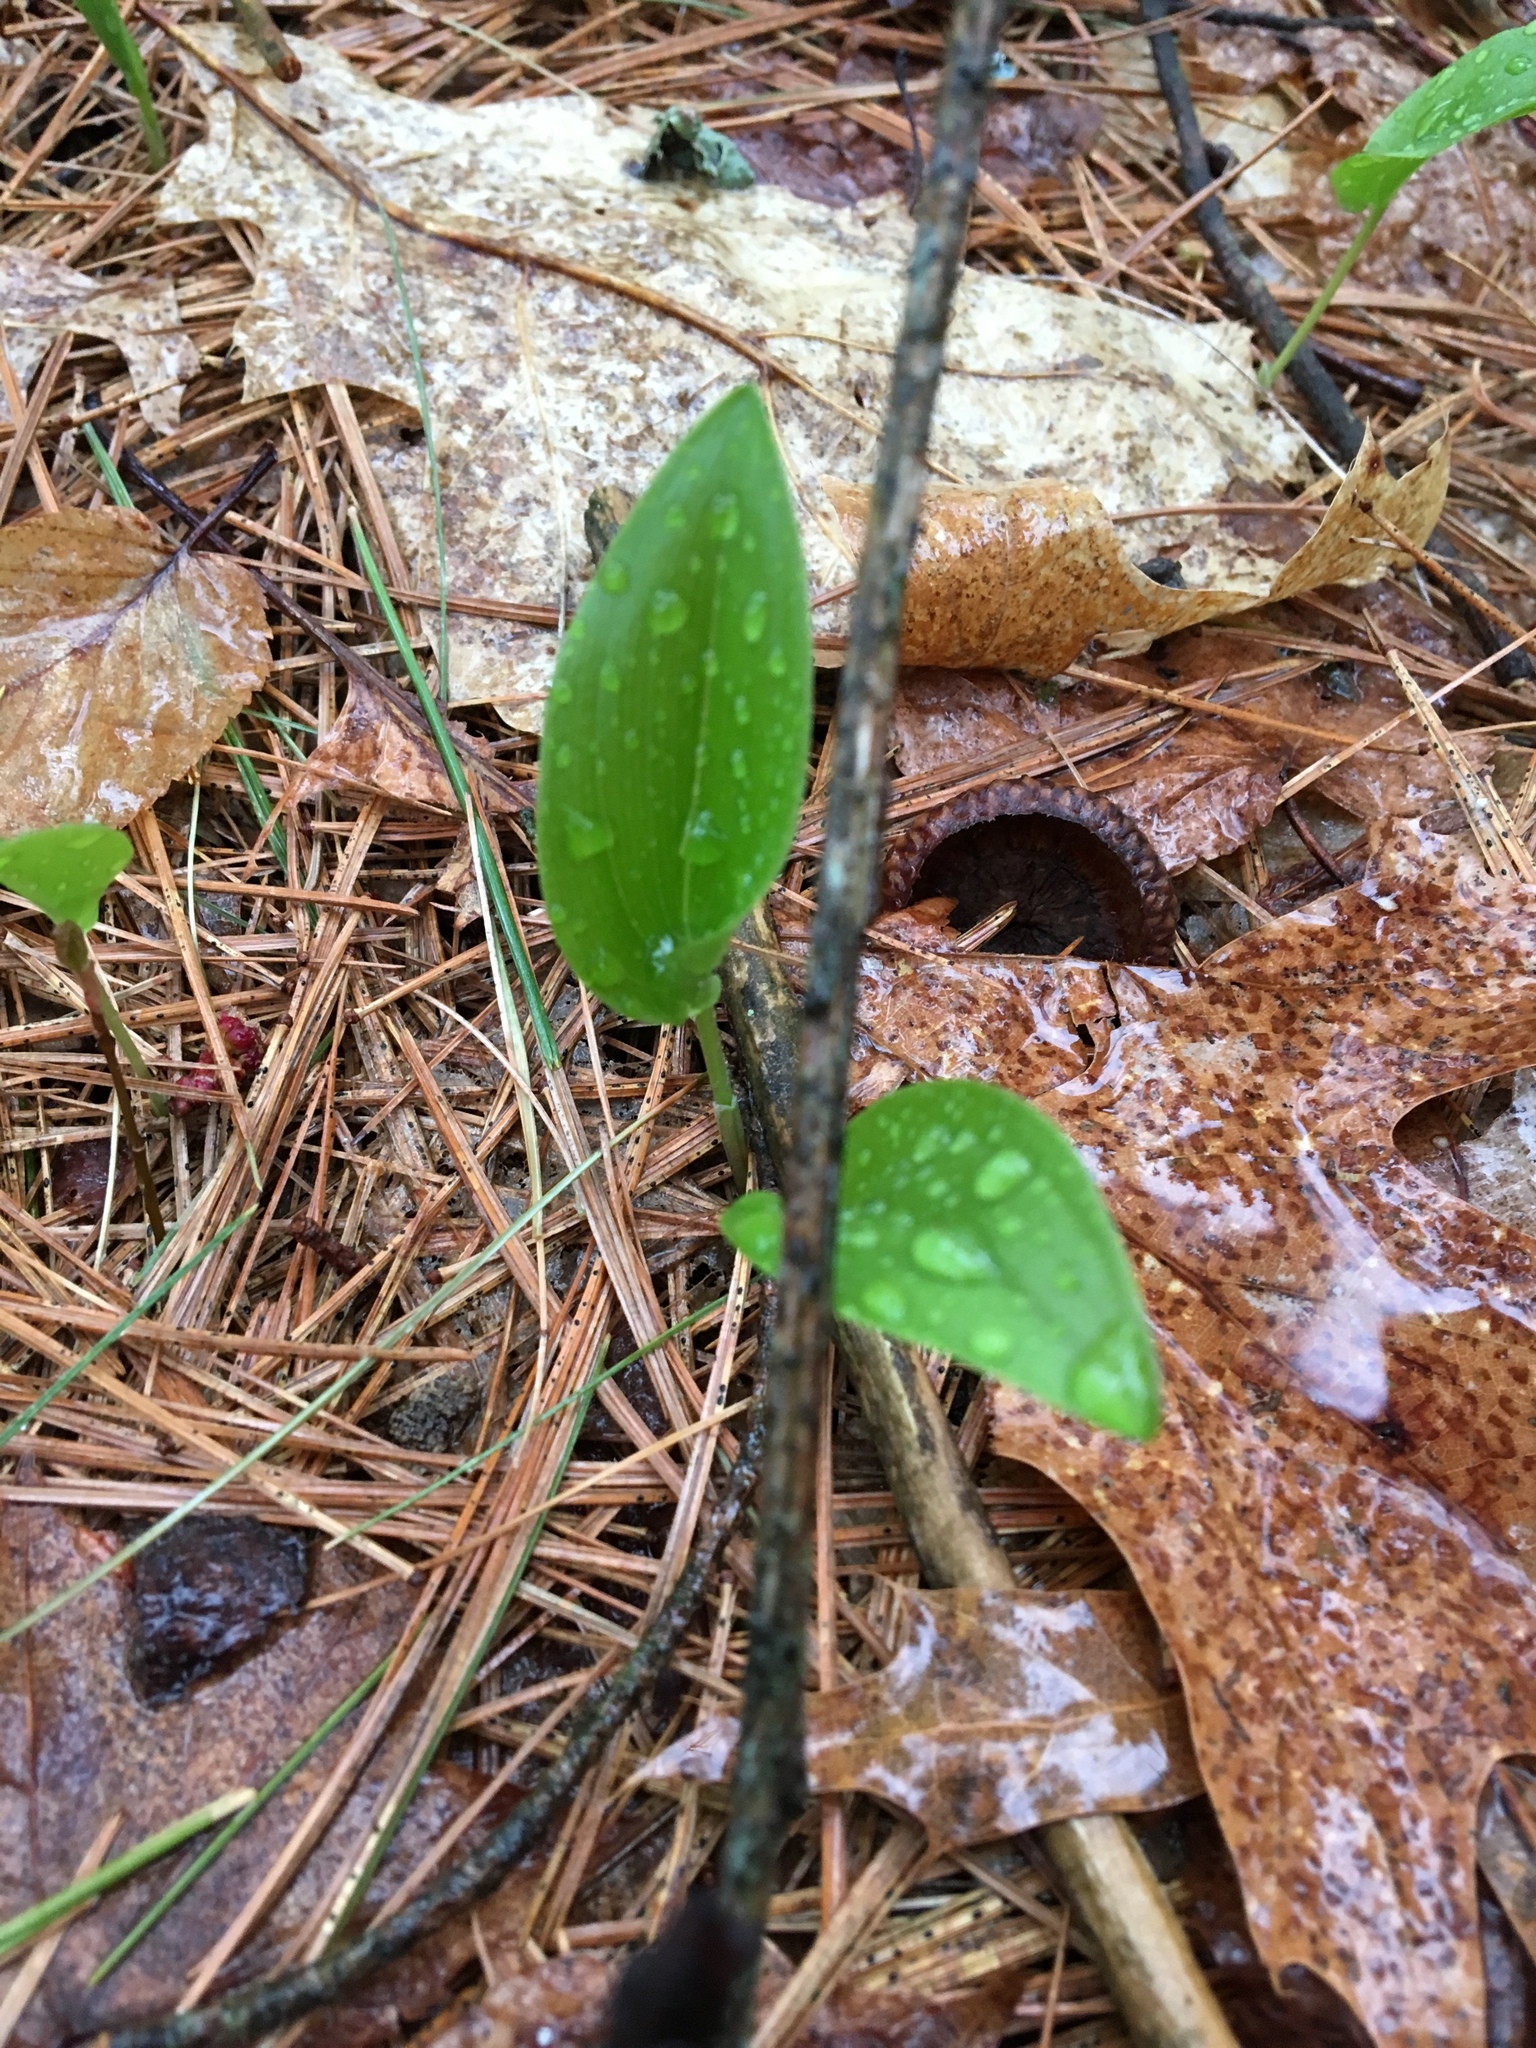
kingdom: Plantae
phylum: Tracheophyta
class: Liliopsida
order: Asparagales
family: Asparagaceae
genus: Maianthemum
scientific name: Maianthemum canadense
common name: False lily-of-the-valley
